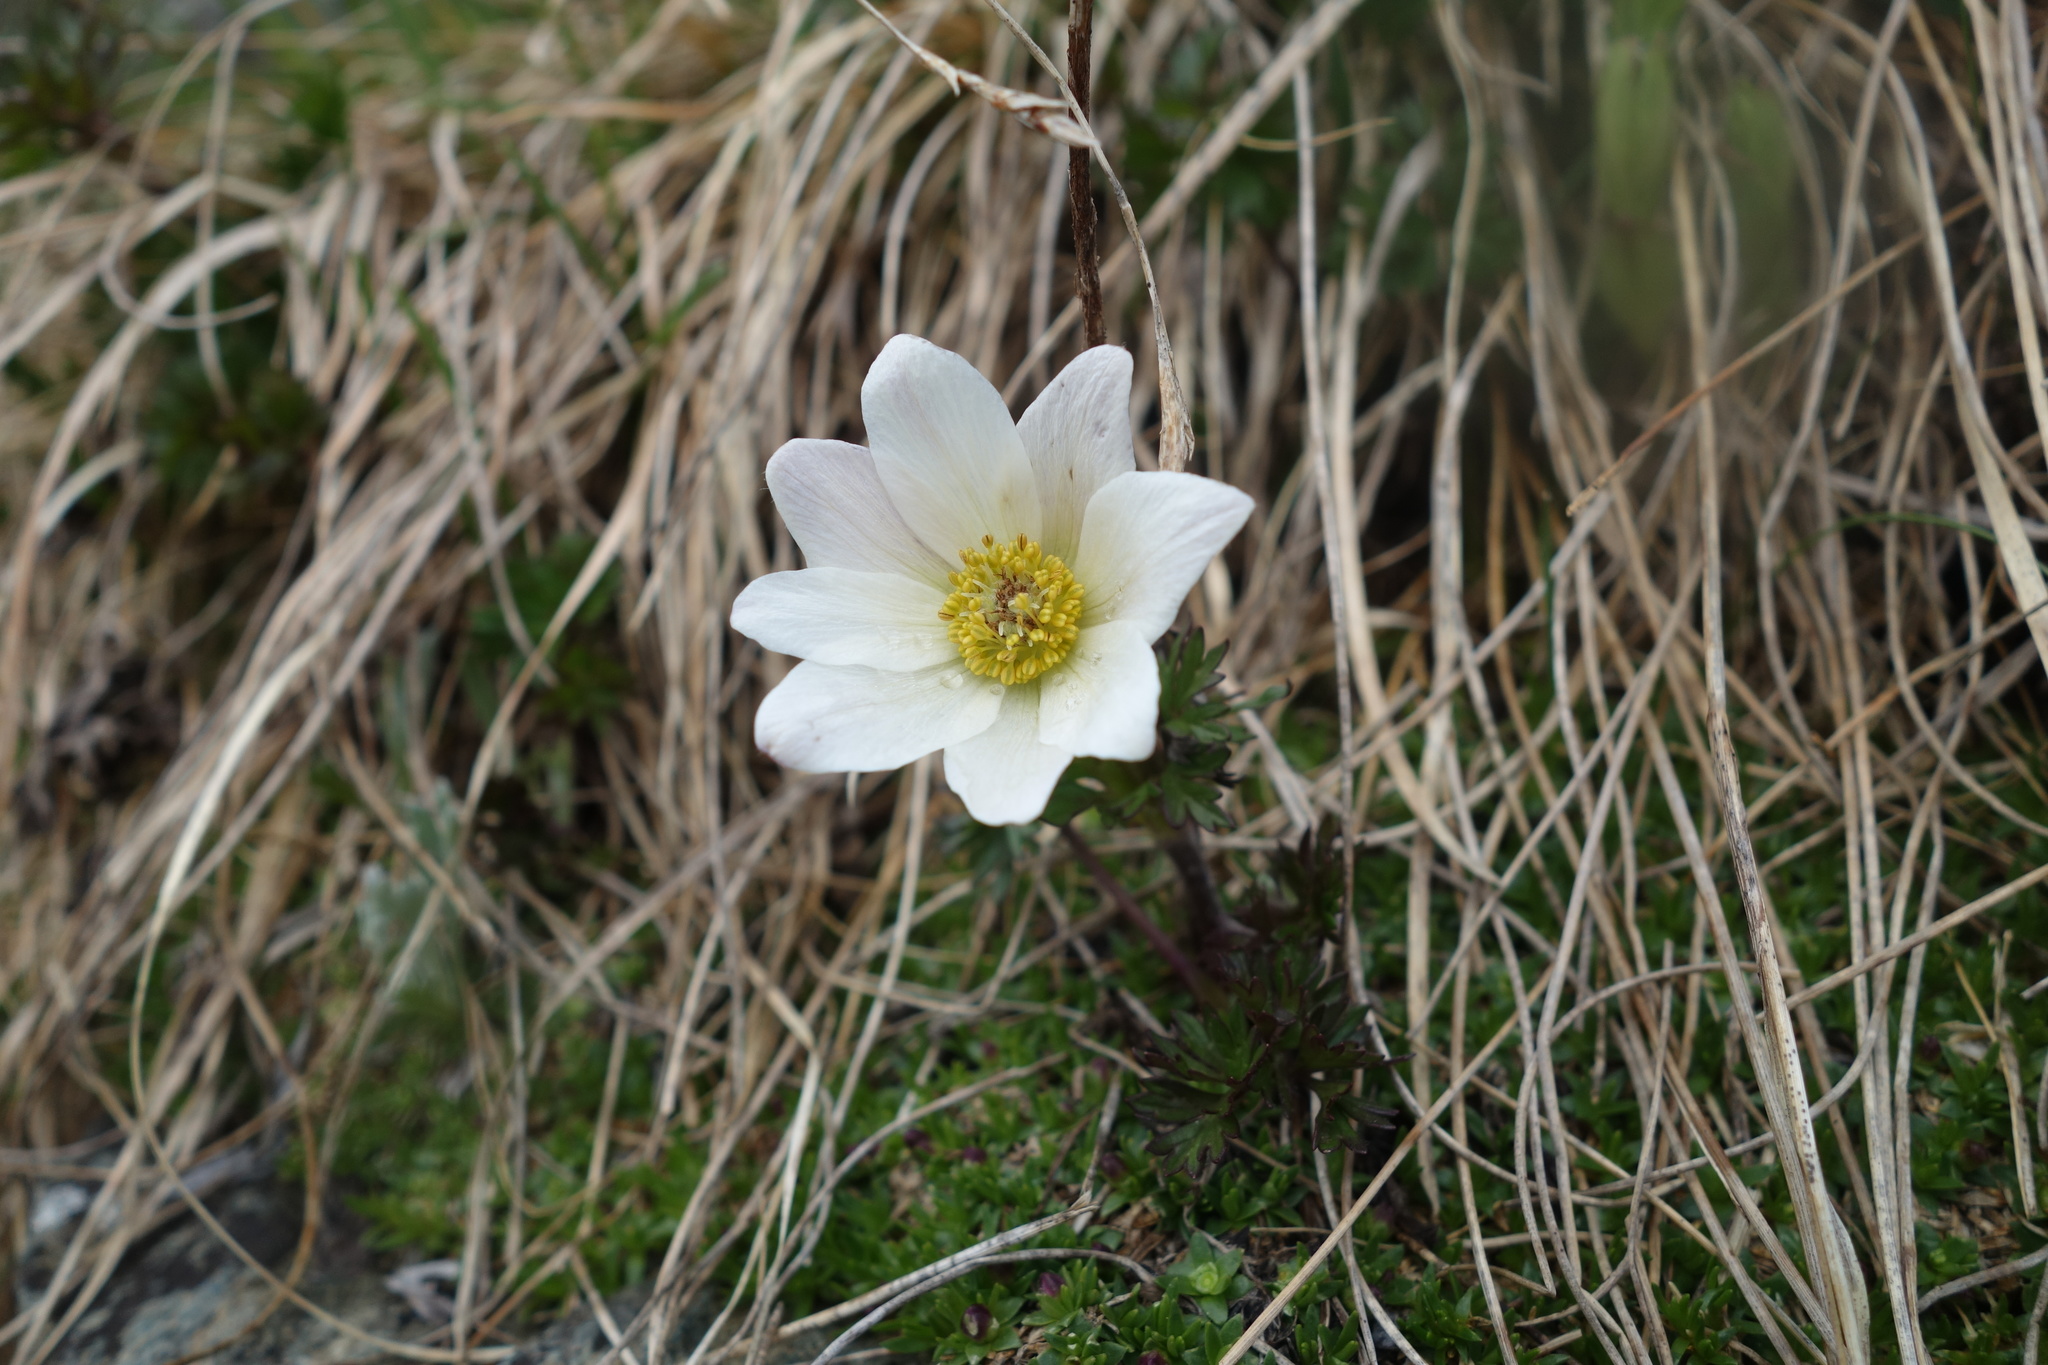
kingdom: Plantae
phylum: Tracheophyta
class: Magnoliopsida
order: Ranunculales
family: Ranunculaceae
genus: Pulsatilla
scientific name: Pulsatilla alpina
